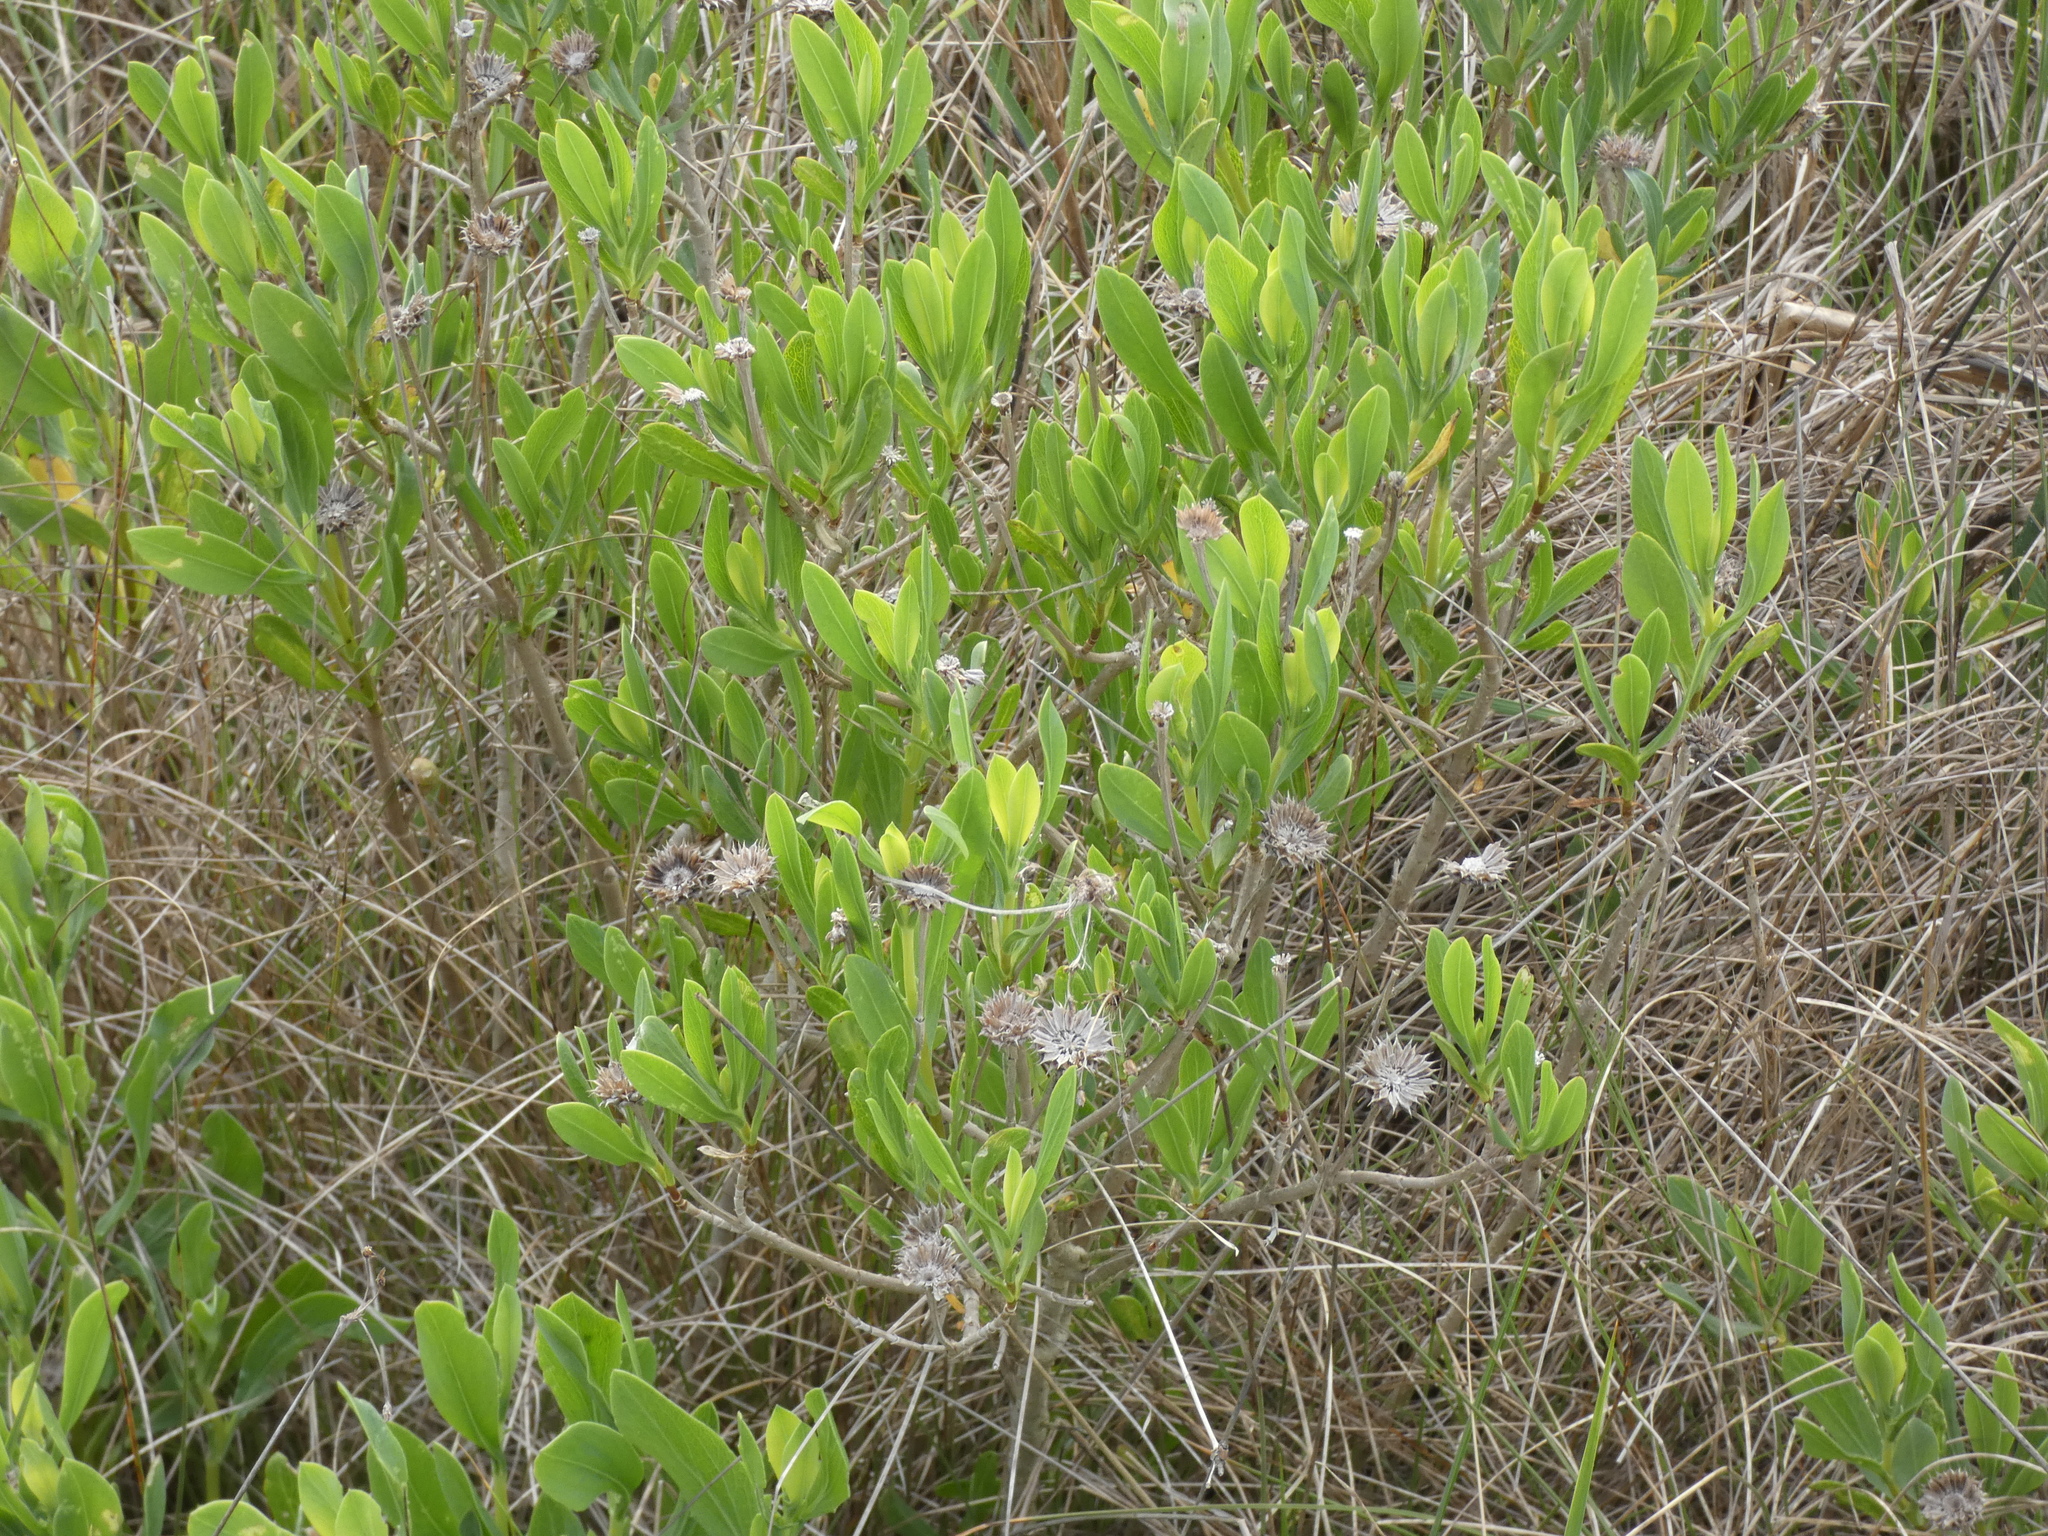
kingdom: Plantae
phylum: Tracheophyta
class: Magnoliopsida
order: Asterales
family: Asteraceae
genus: Borrichia
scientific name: Borrichia frutescens
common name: Sea oxeye
